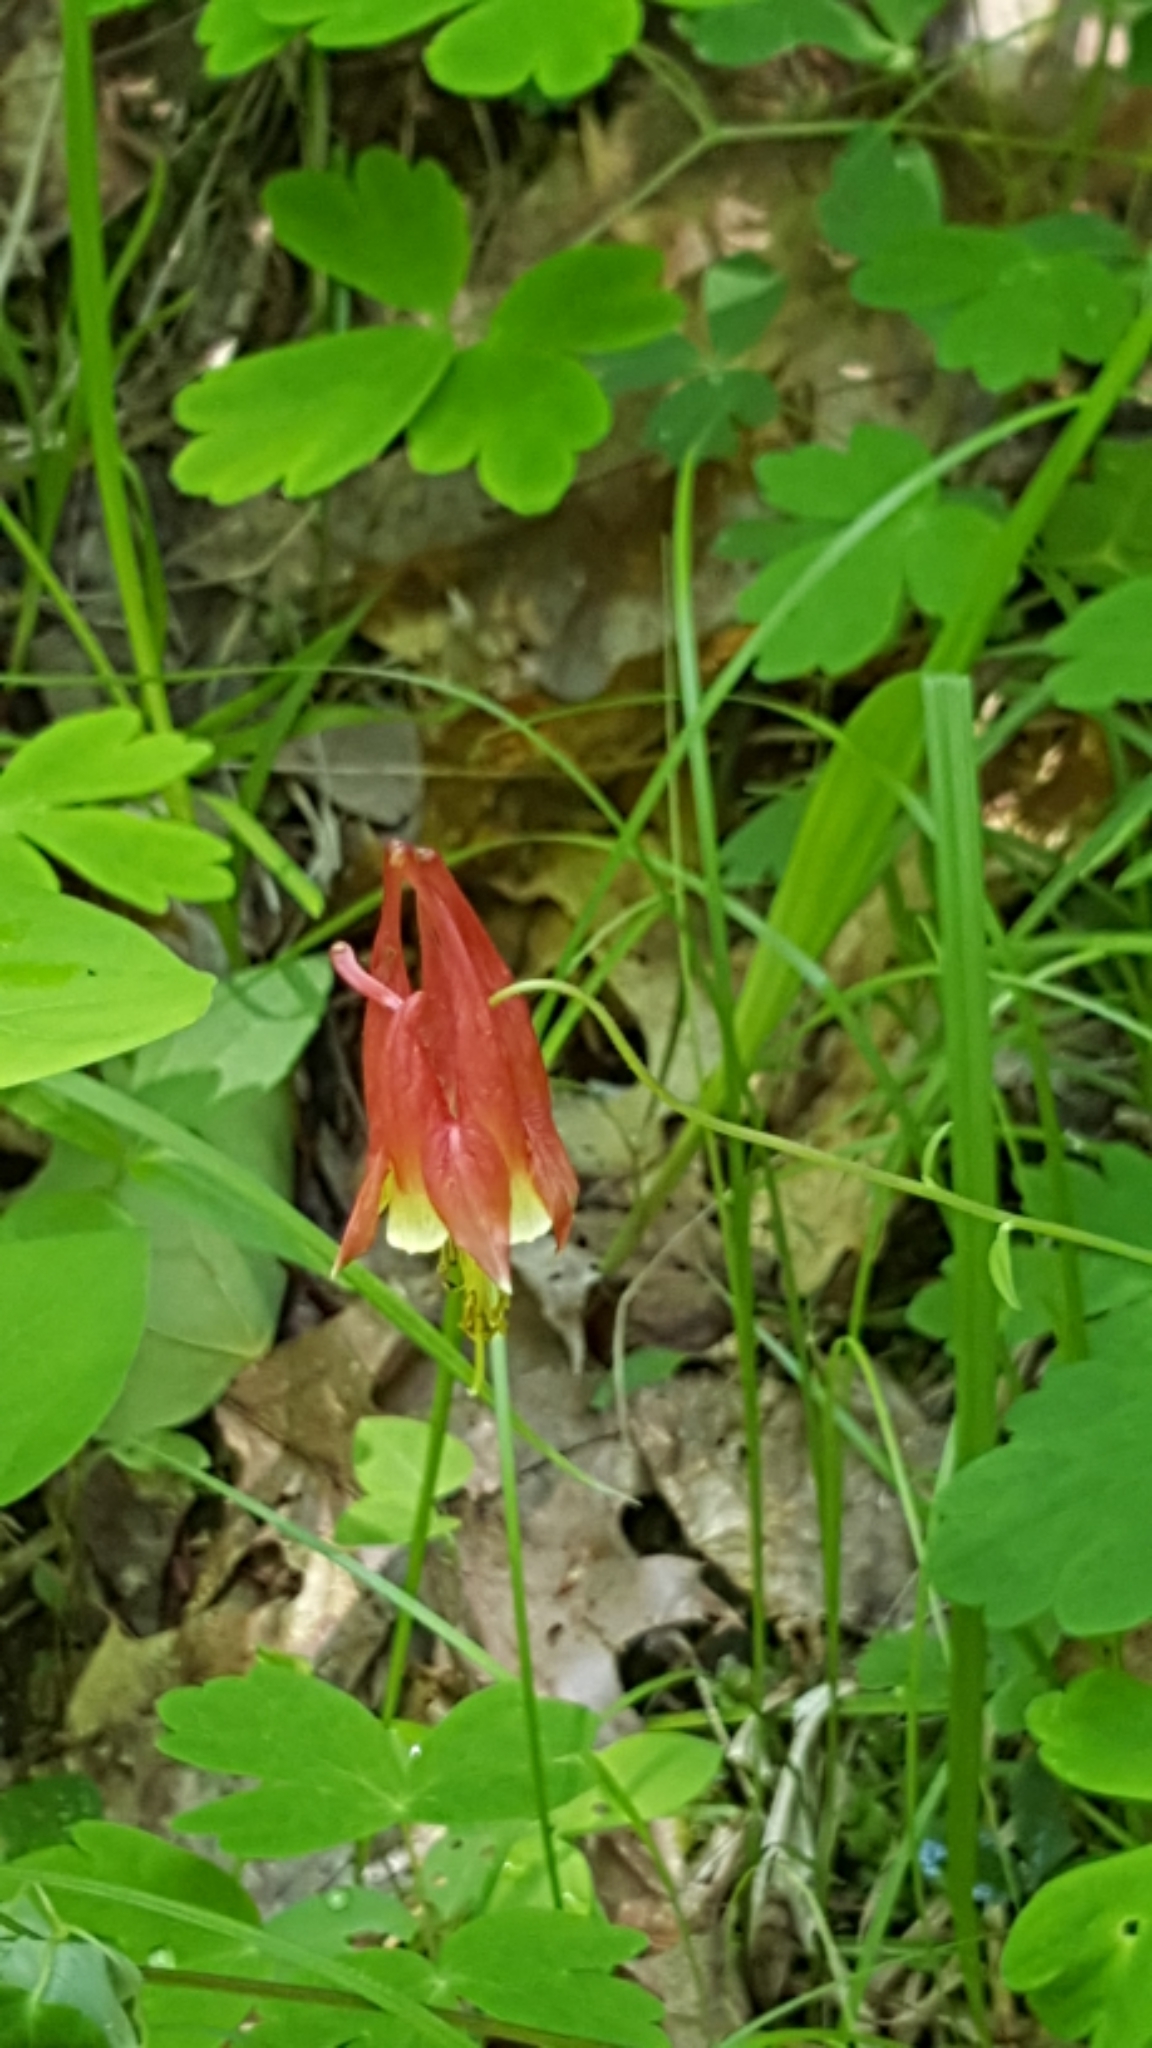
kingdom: Plantae
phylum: Tracheophyta
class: Magnoliopsida
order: Ranunculales
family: Ranunculaceae
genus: Aquilegia
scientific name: Aquilegia canadensis
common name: American columbine
